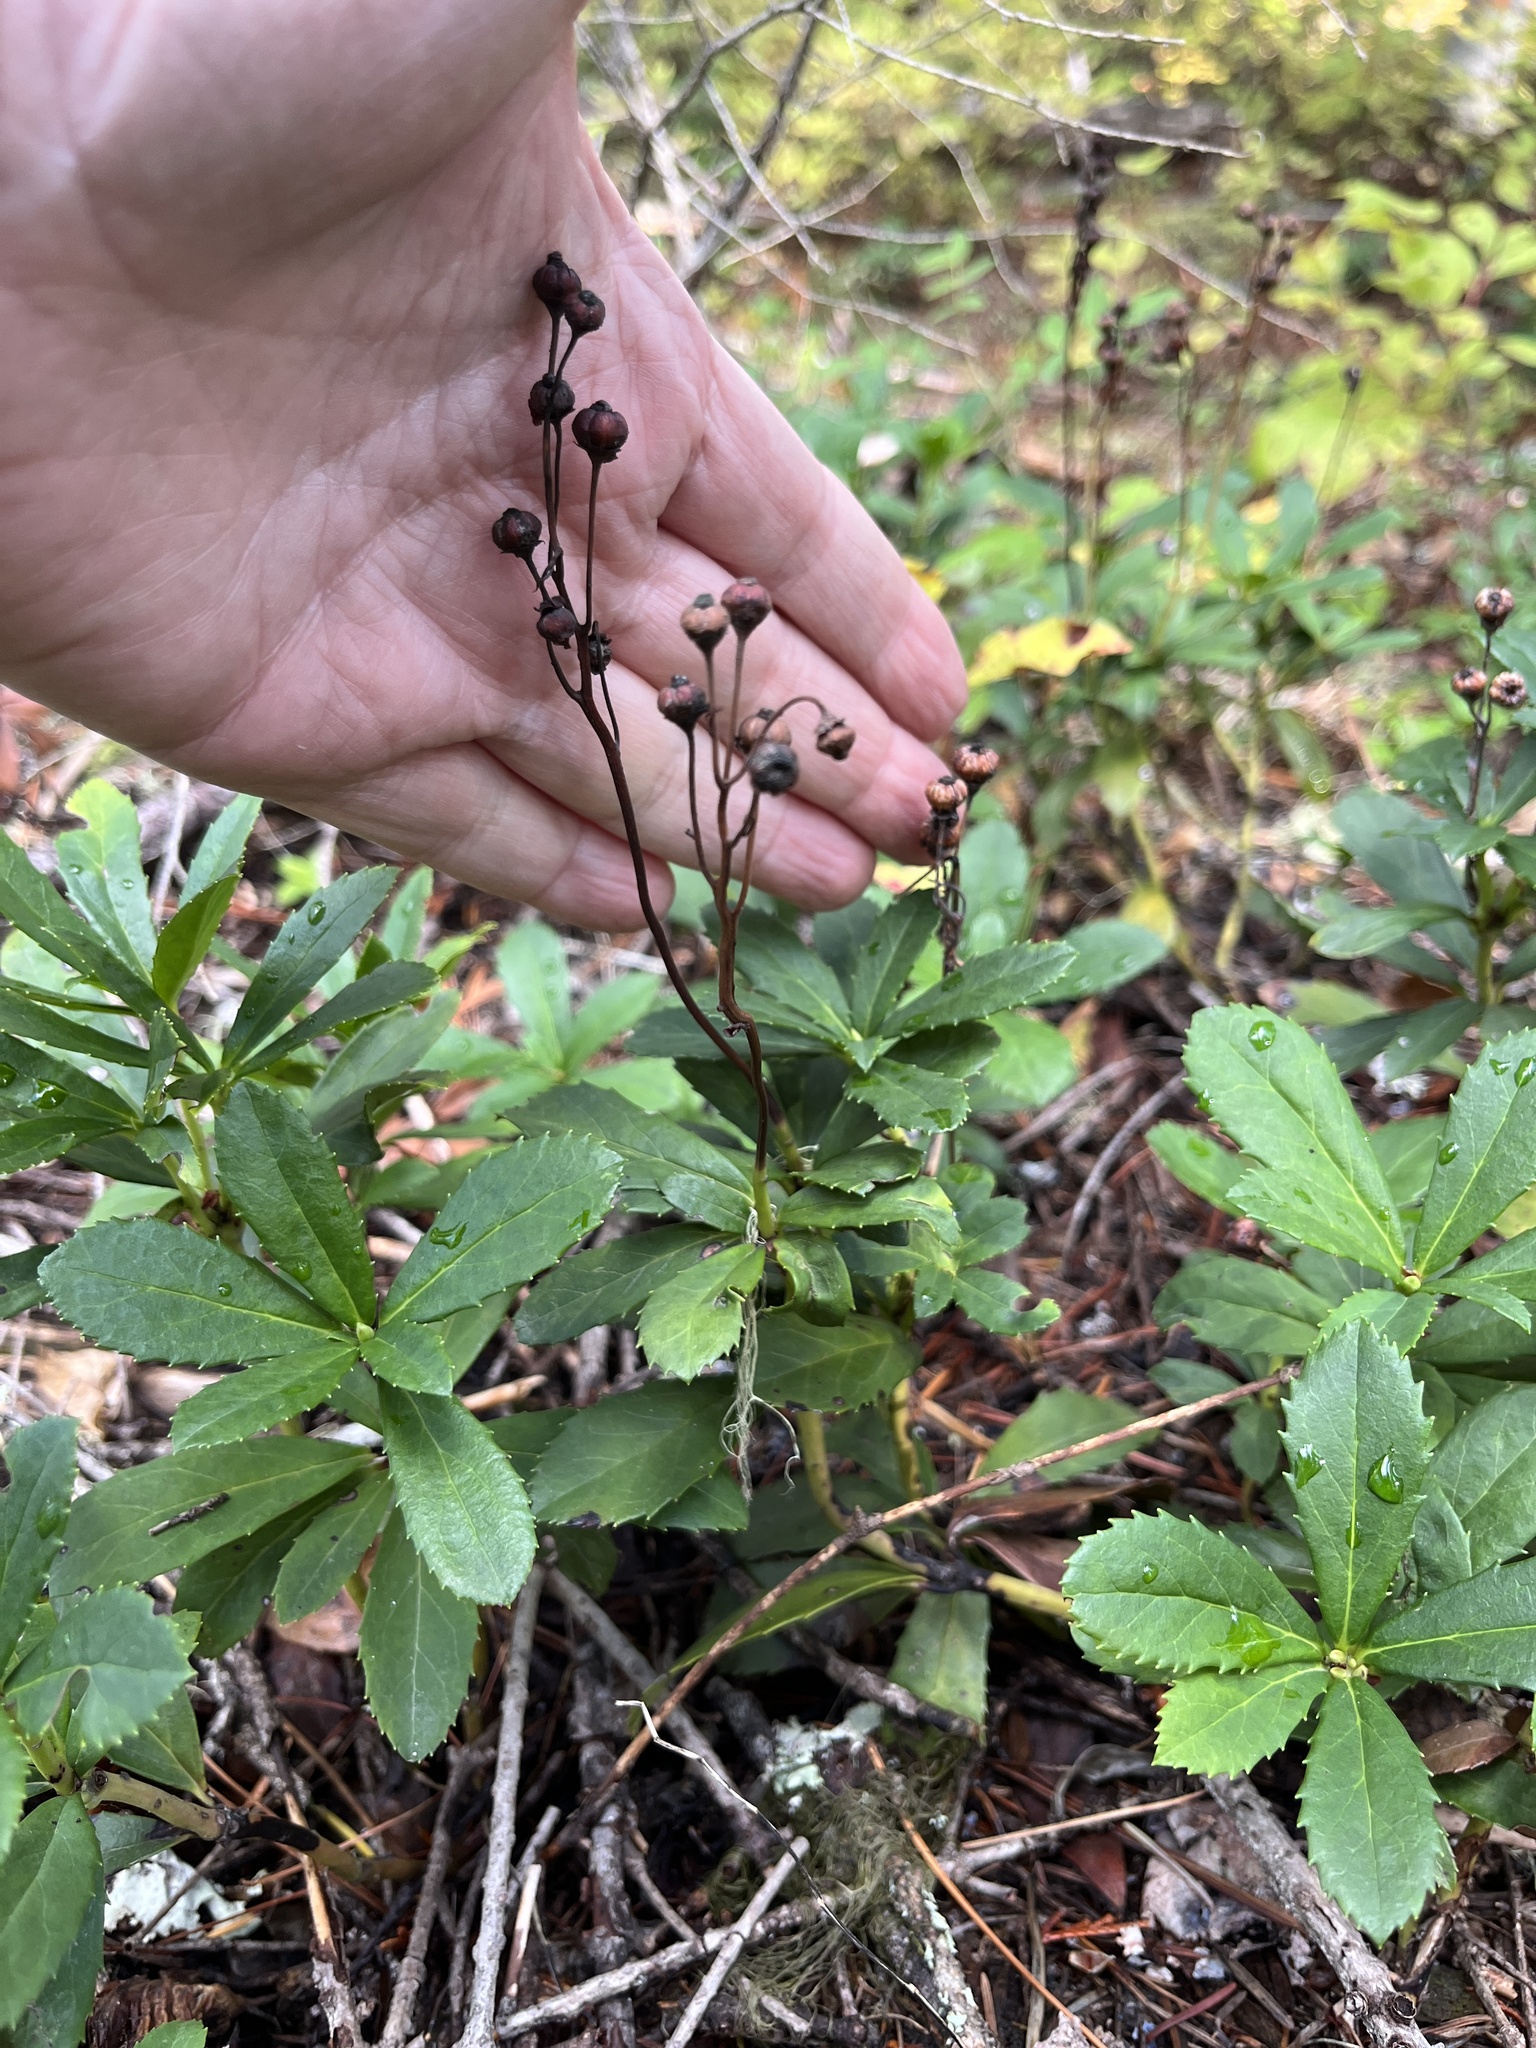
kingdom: Plantae
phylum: Tracheophyta
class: Magnoliopsida
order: Ericales
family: Ericaceae
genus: Chimaphila
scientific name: Chimaphila umbellata
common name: Pipsissewa
